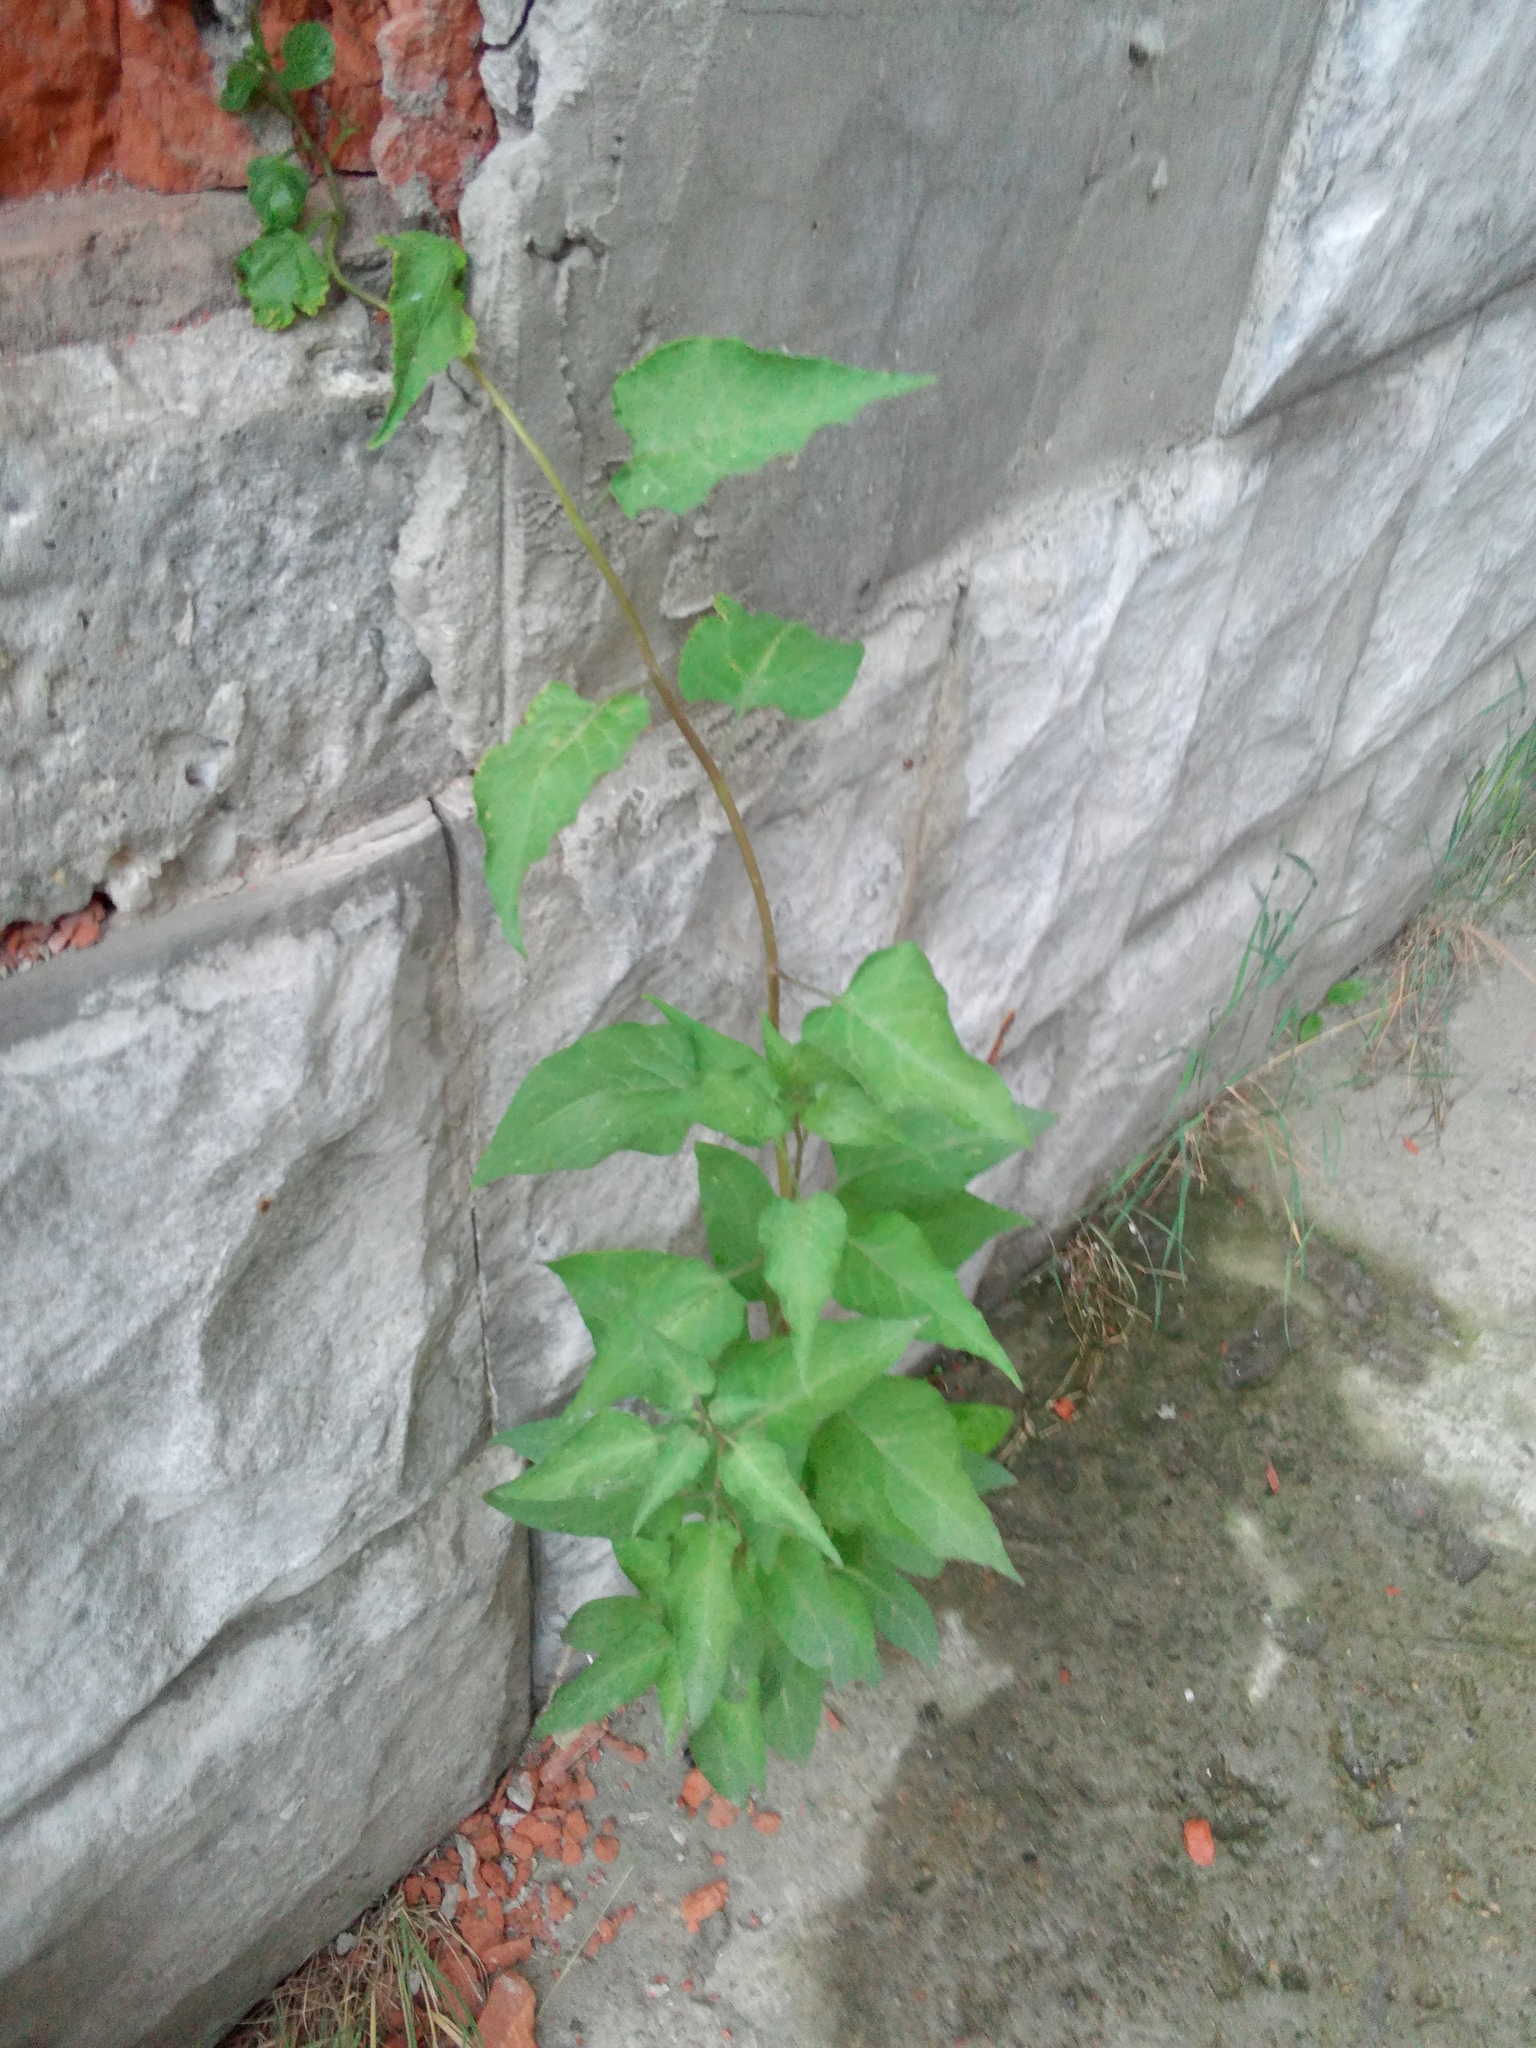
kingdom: Plantae
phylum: Tracheophyta
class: Magnoliopsida
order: Solanales
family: Solanaceae
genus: Solanum
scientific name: Solanum dulcamara
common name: Climbing nightshade
